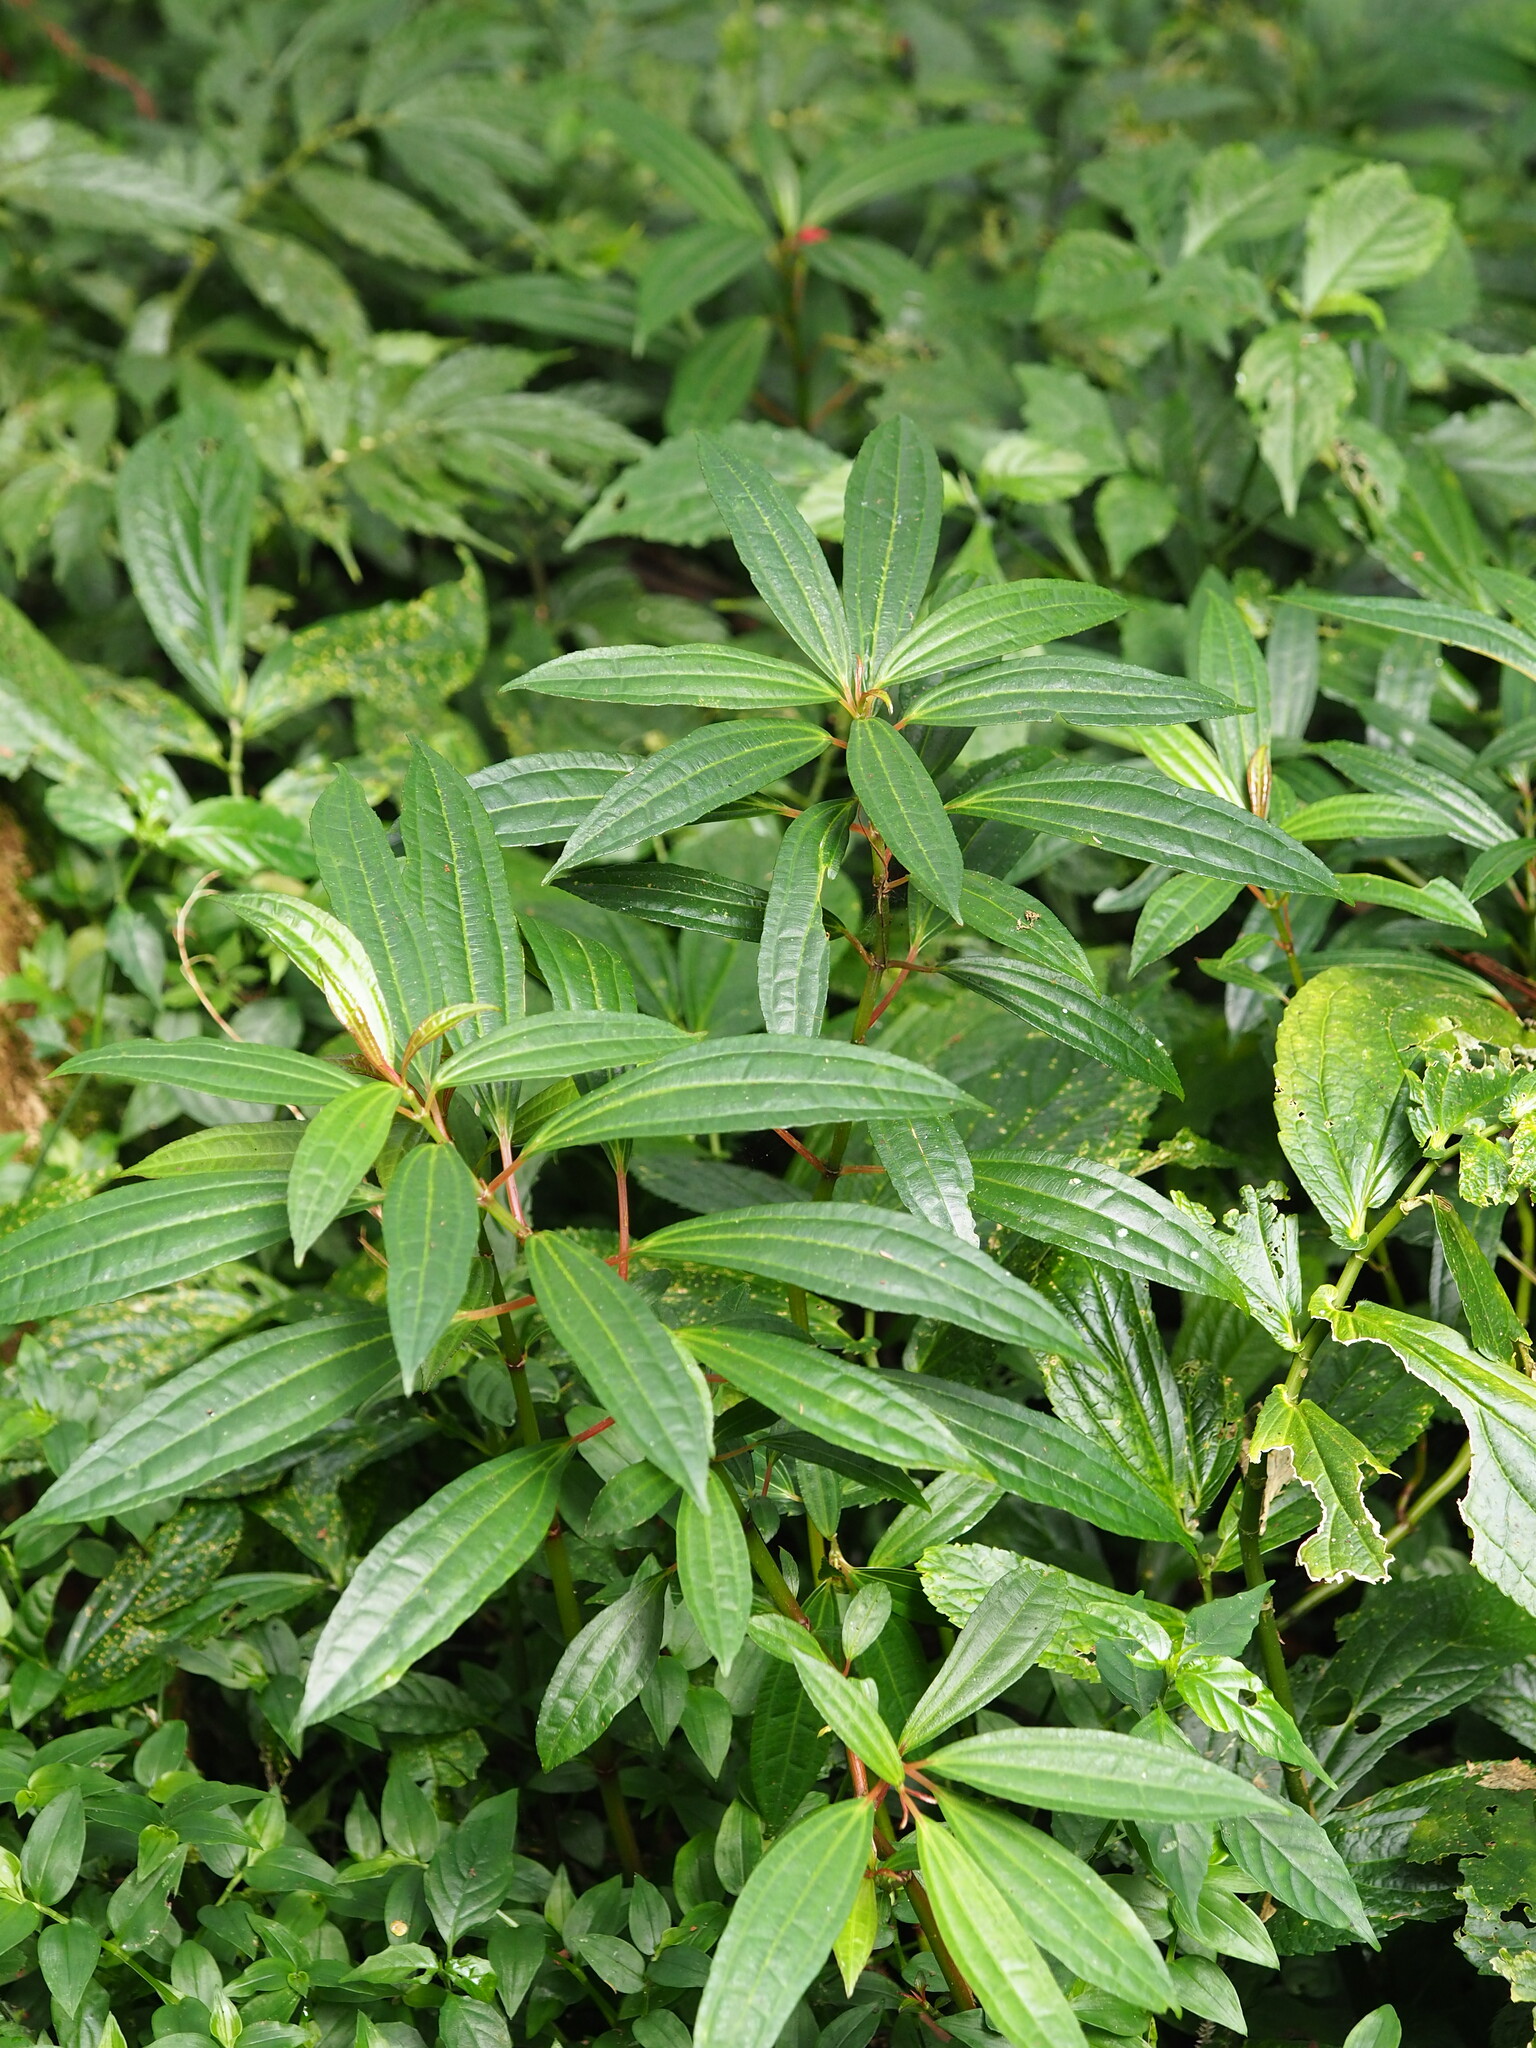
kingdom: Plantae
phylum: Tracheophyta
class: Magnoliopsida
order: Rosales
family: Urticaceae
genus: Pilea
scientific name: Pilea rotundinucula
